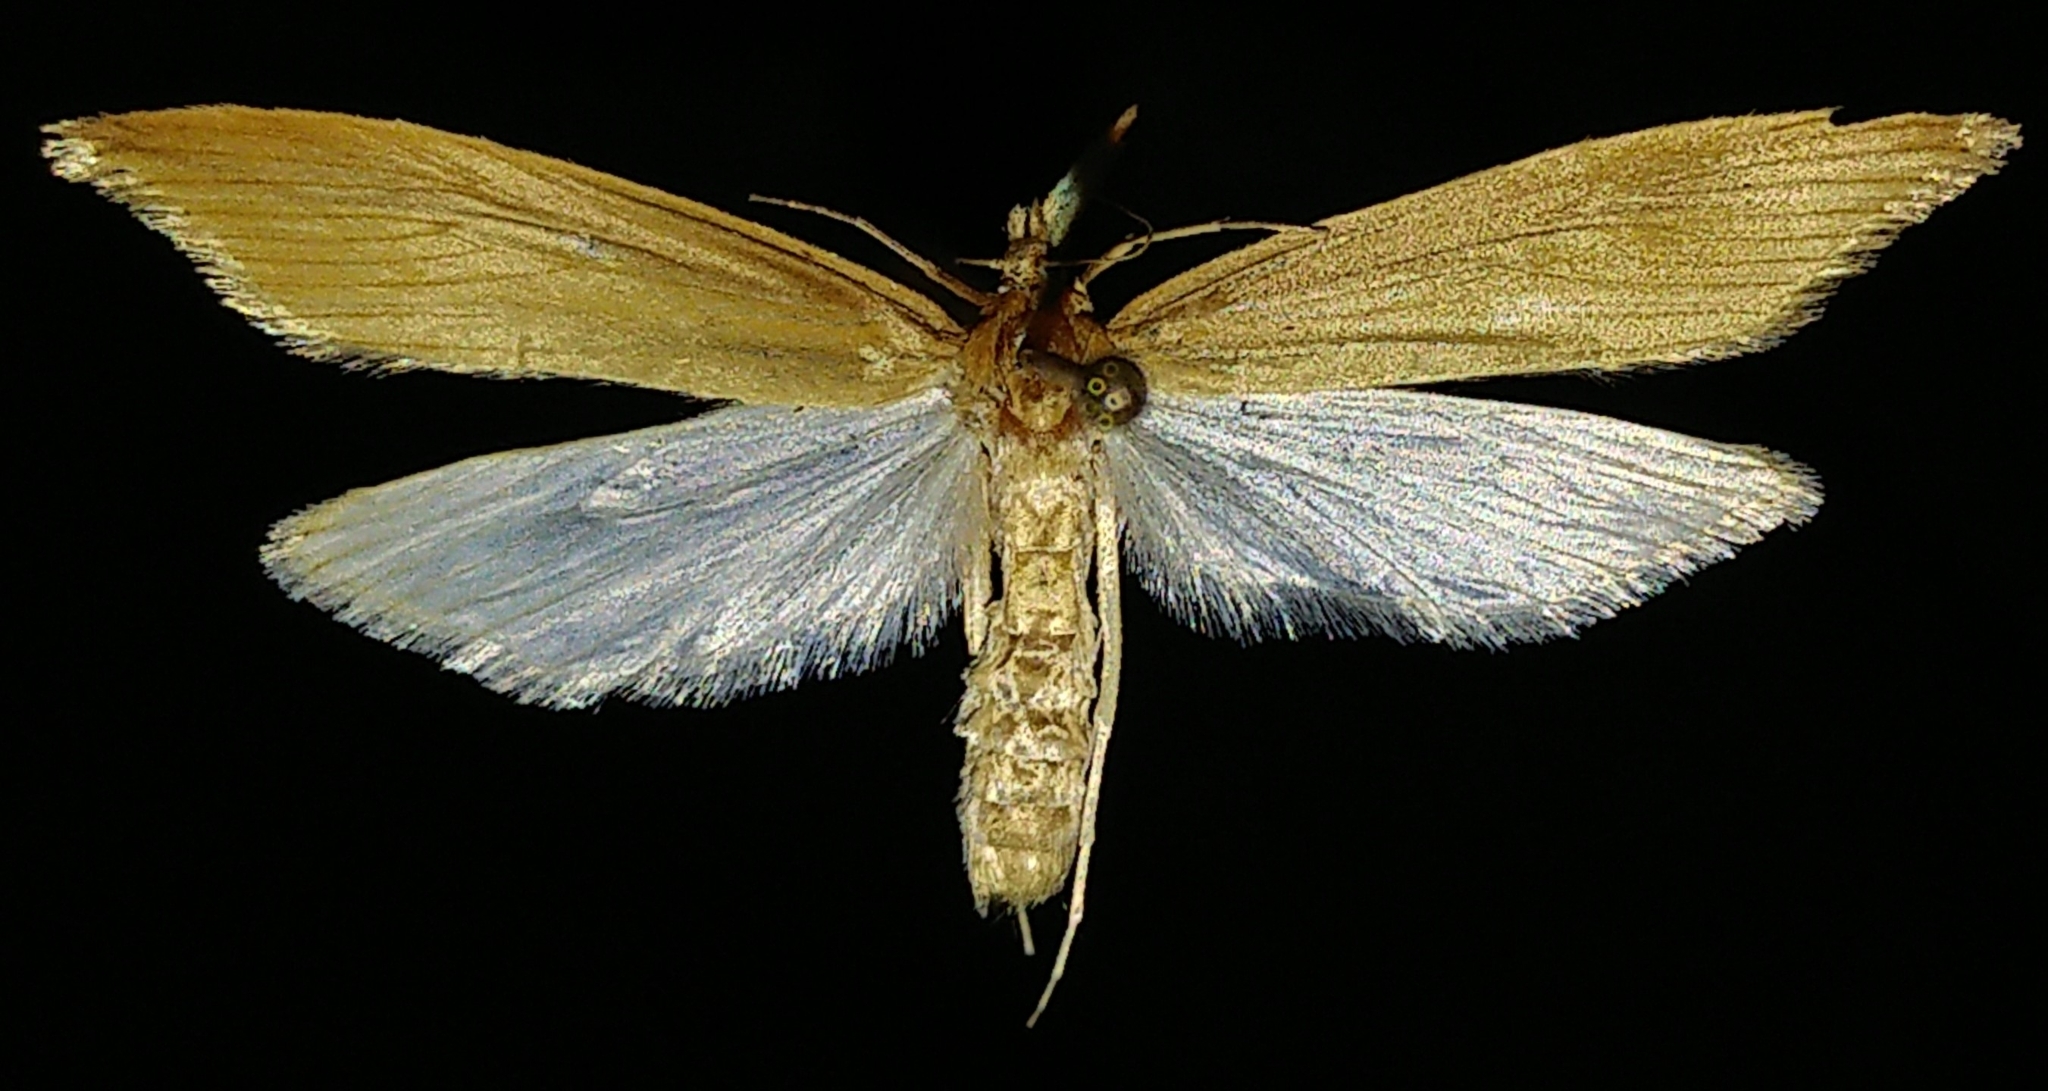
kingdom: Animalia
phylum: Arthropoda
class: Insecta
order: Lepidoptera
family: Crambidae
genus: Donacaula
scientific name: Donacaula nitidellus
